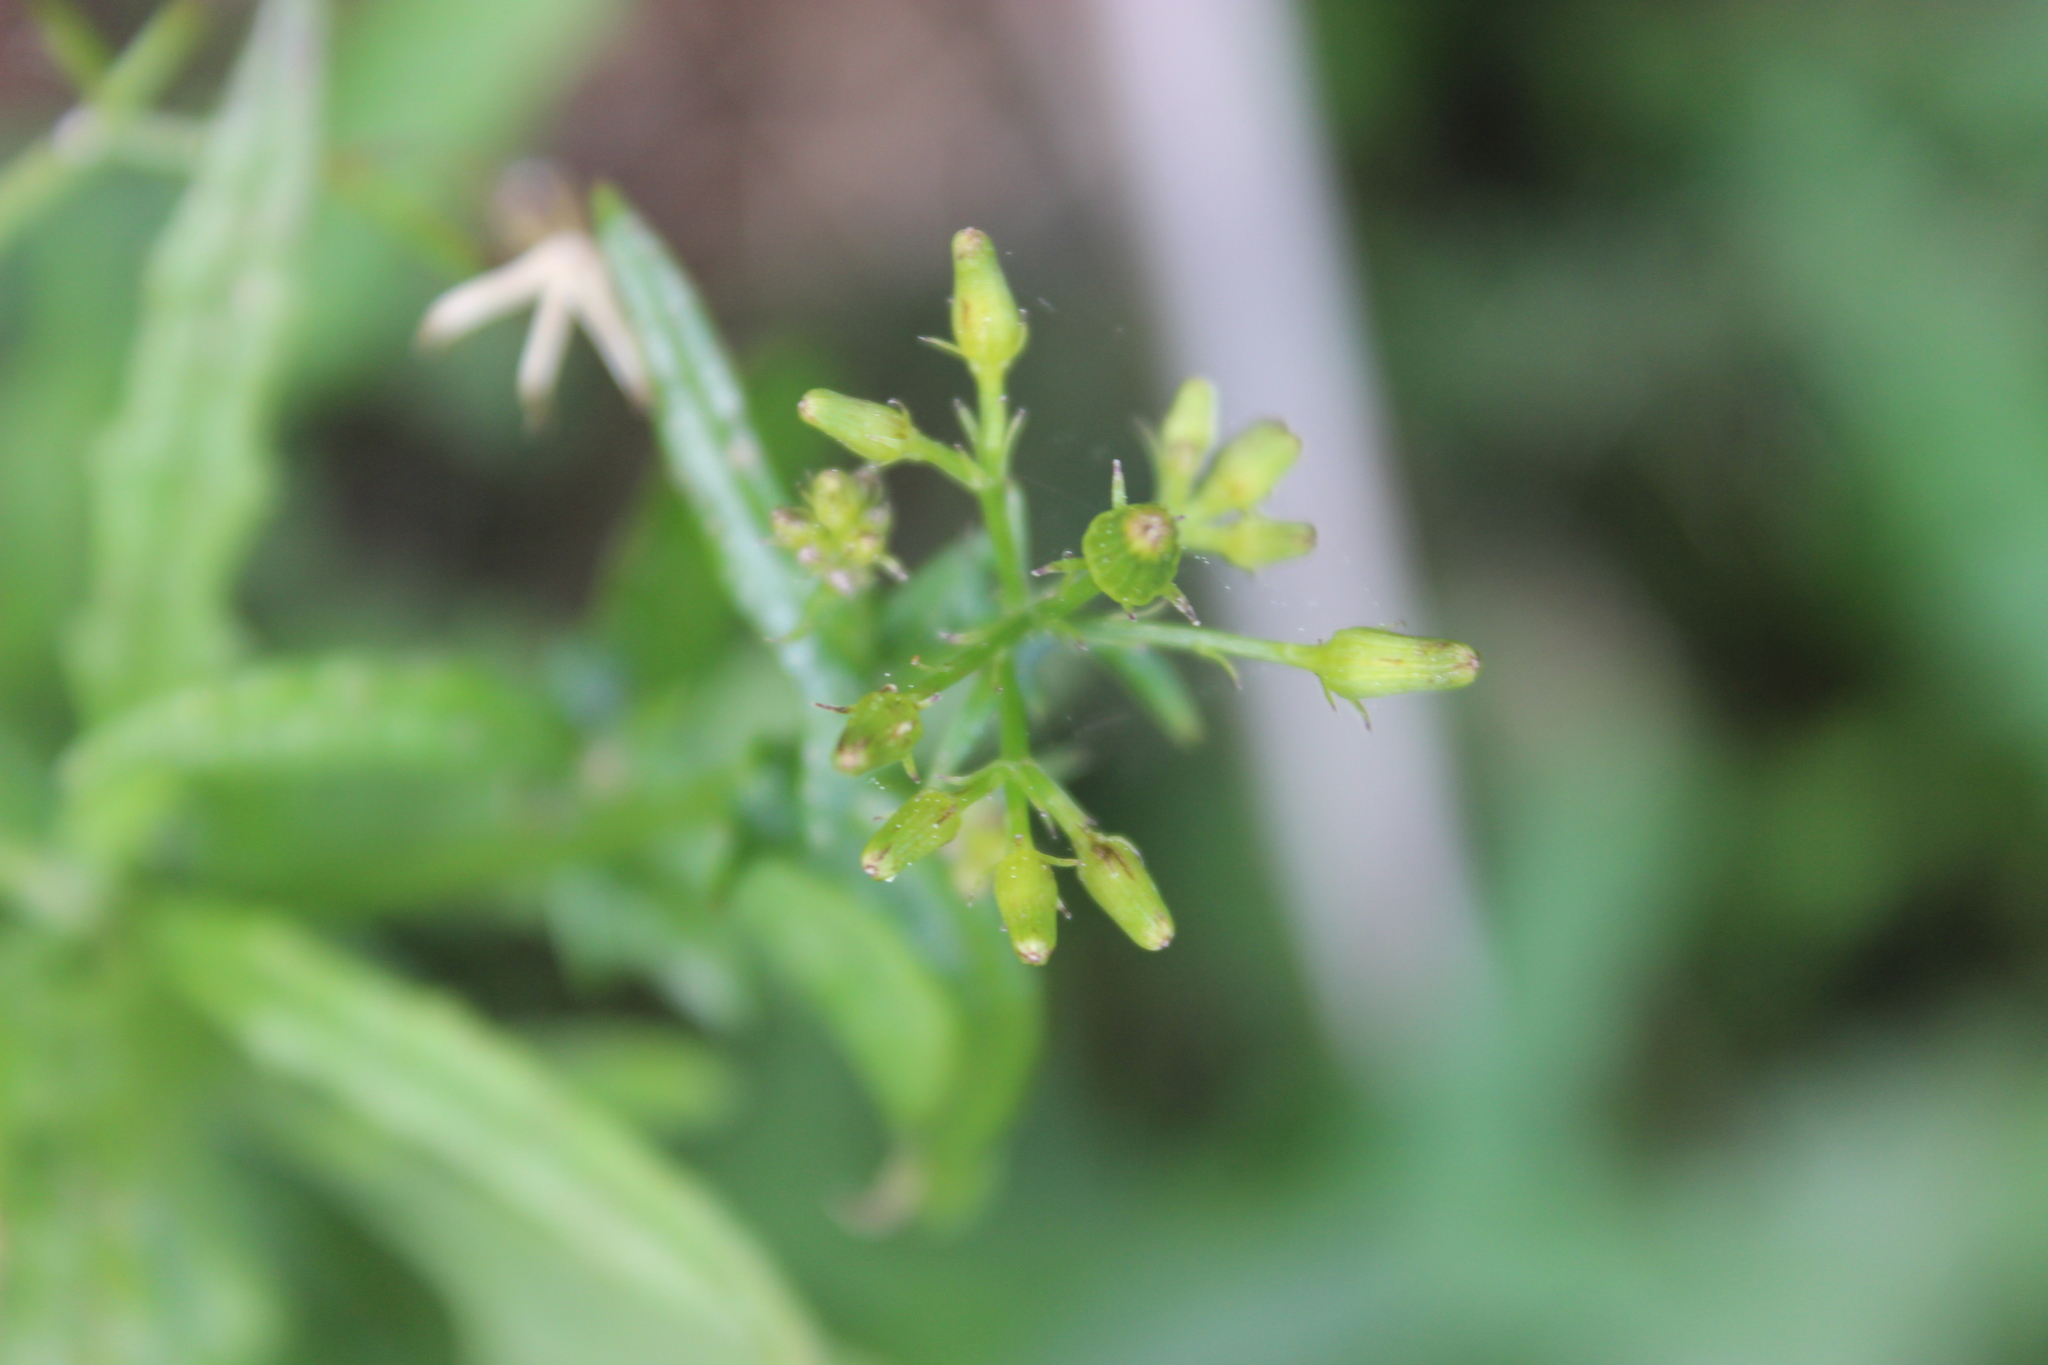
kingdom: Plantae
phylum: Tracheophyta
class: Magnoliopsida
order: Asterales
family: Asteraceae
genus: Senecio
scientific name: Senecio hispidulus
